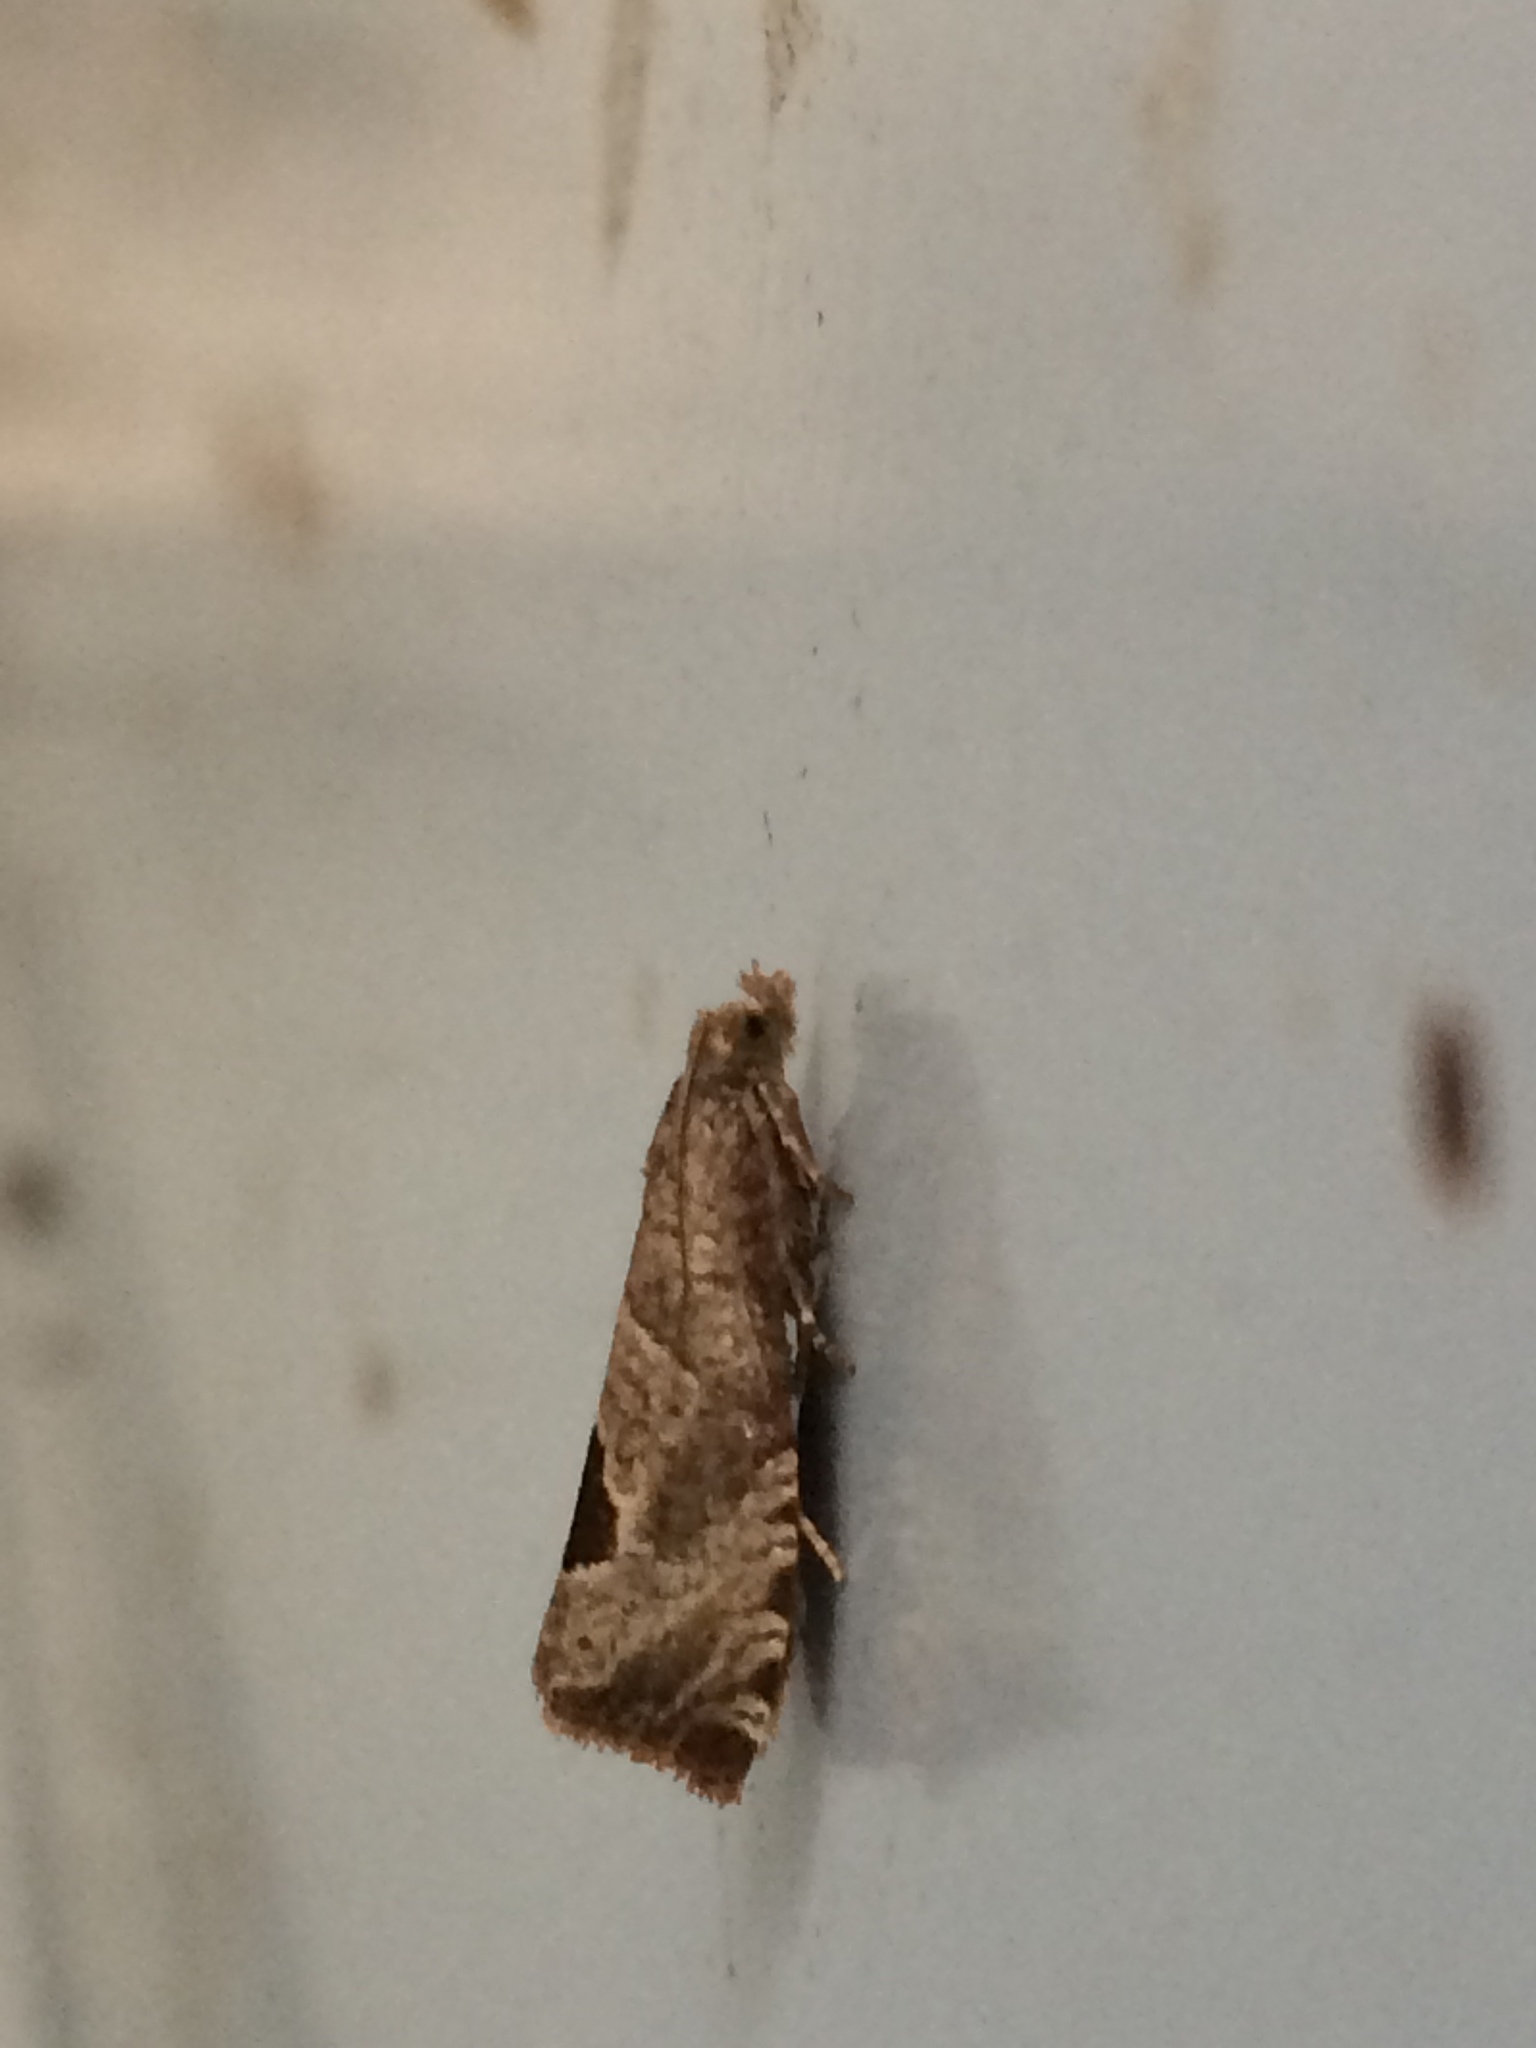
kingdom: Animalia
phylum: Arthropoda
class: Insecta
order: Lepidoptera
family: Tortricidae
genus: Notocelia
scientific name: Notocelia uddmanniana
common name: Bramble shoot moth
